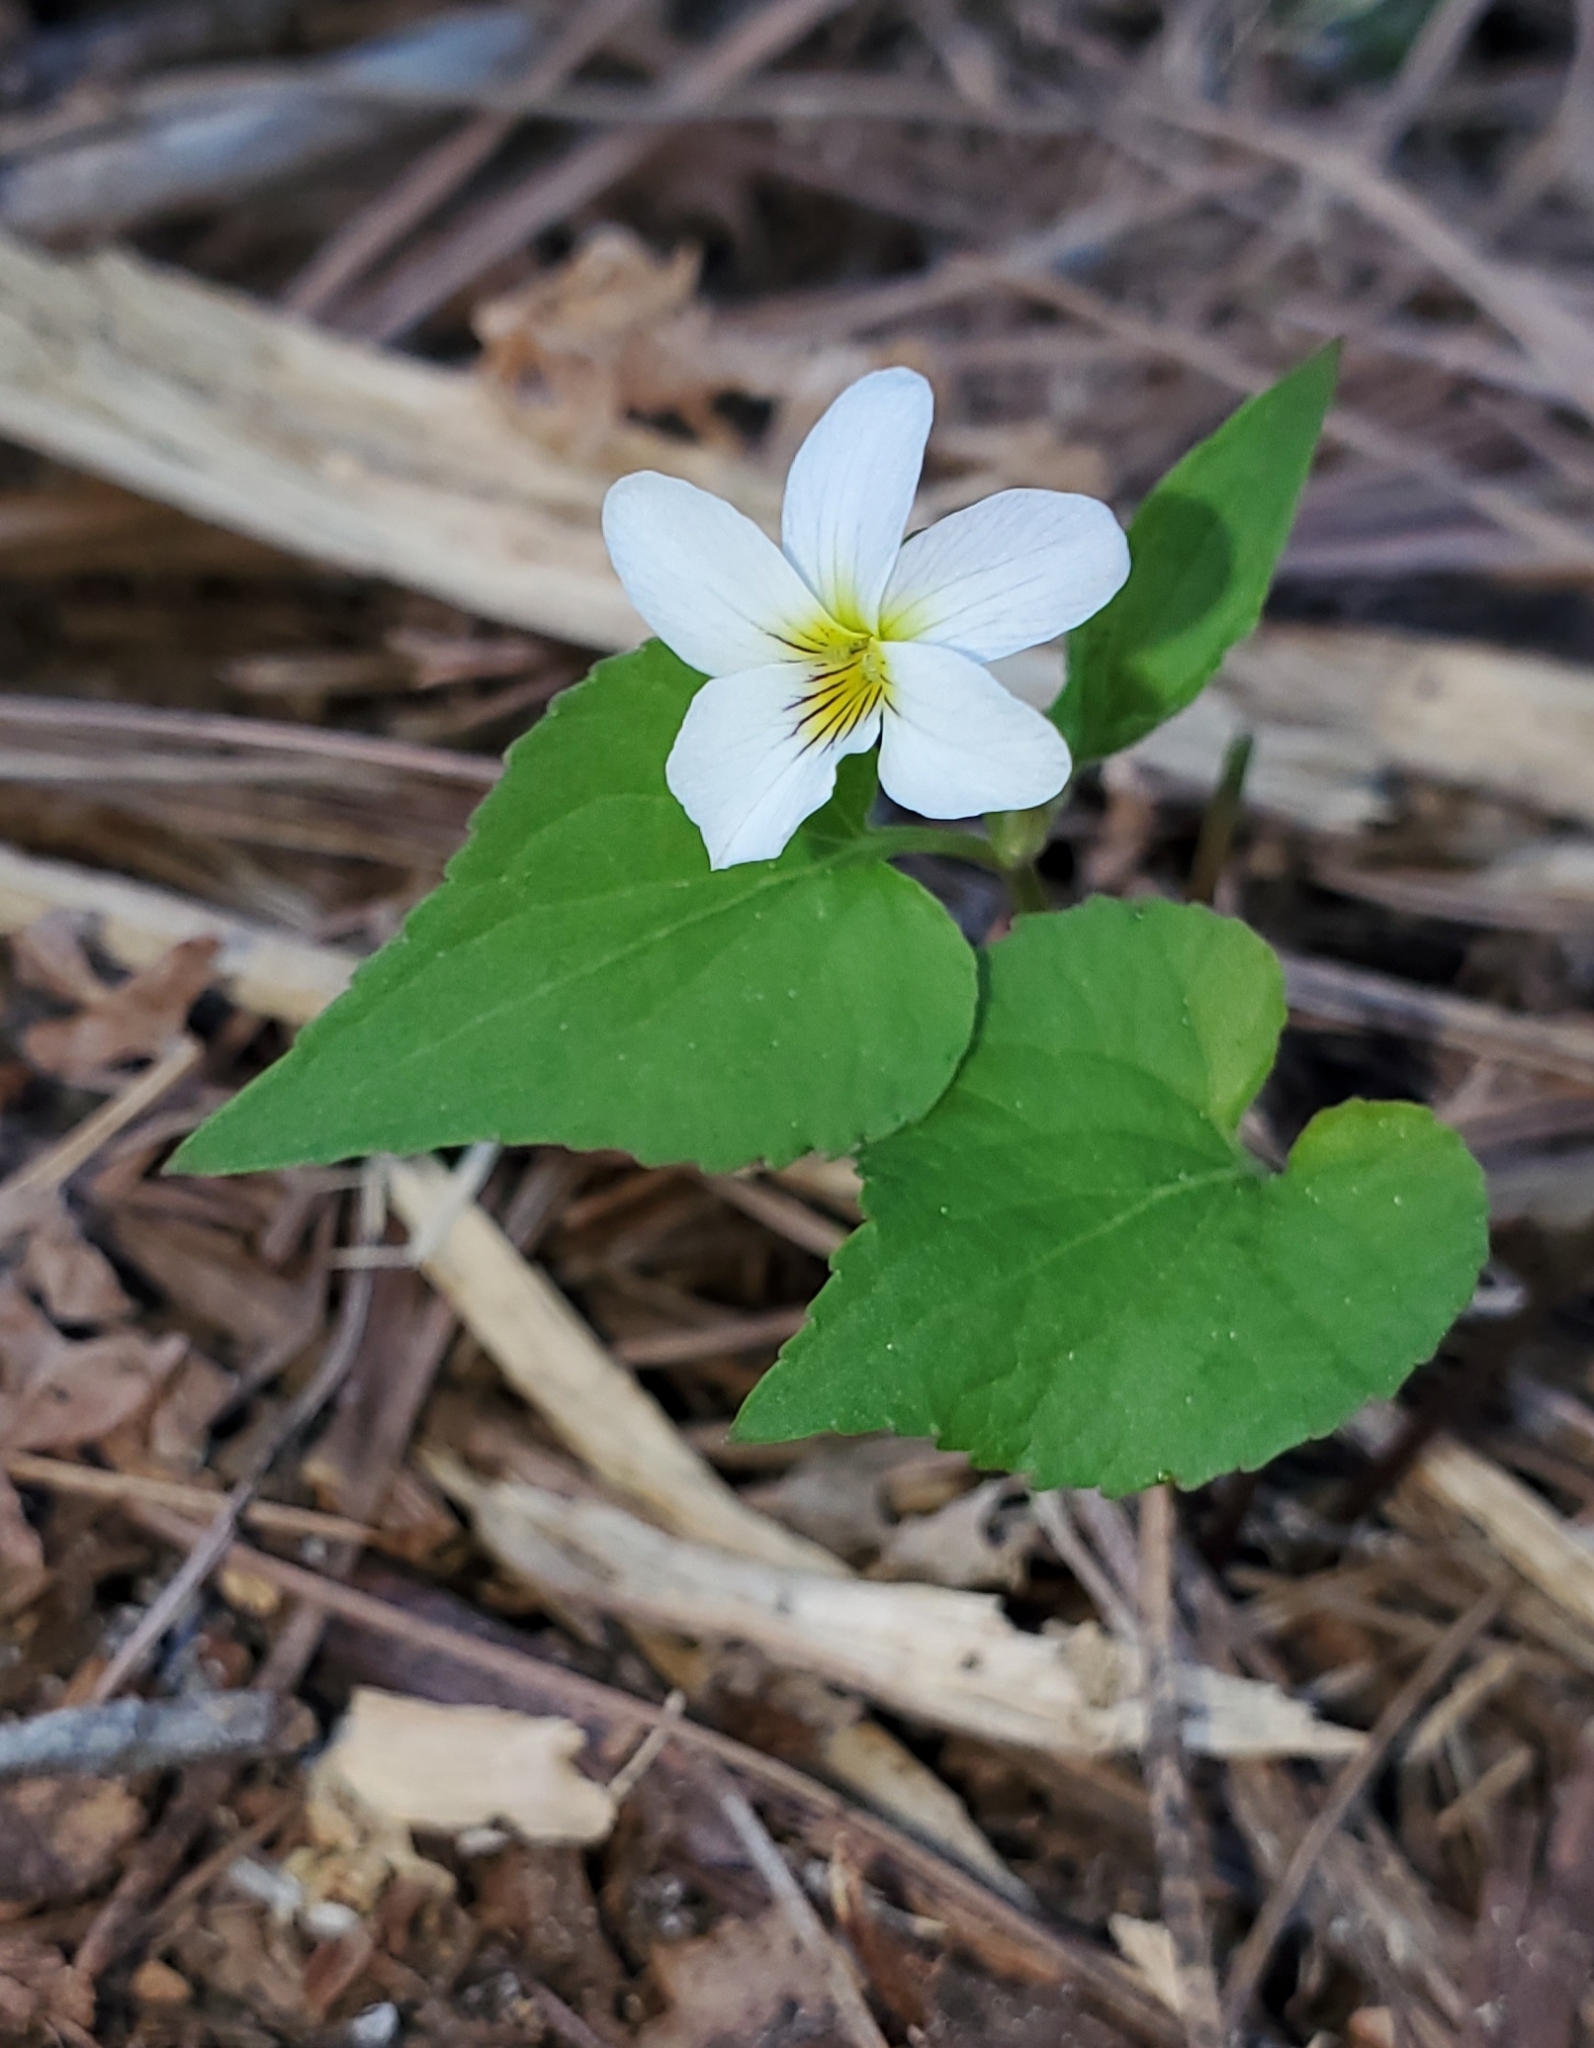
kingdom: Plantae
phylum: Tracheophyta
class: Magnoliopsida
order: Malpighiales
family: Violaceae
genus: Viola
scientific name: Viola canadensis
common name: Canada violet
